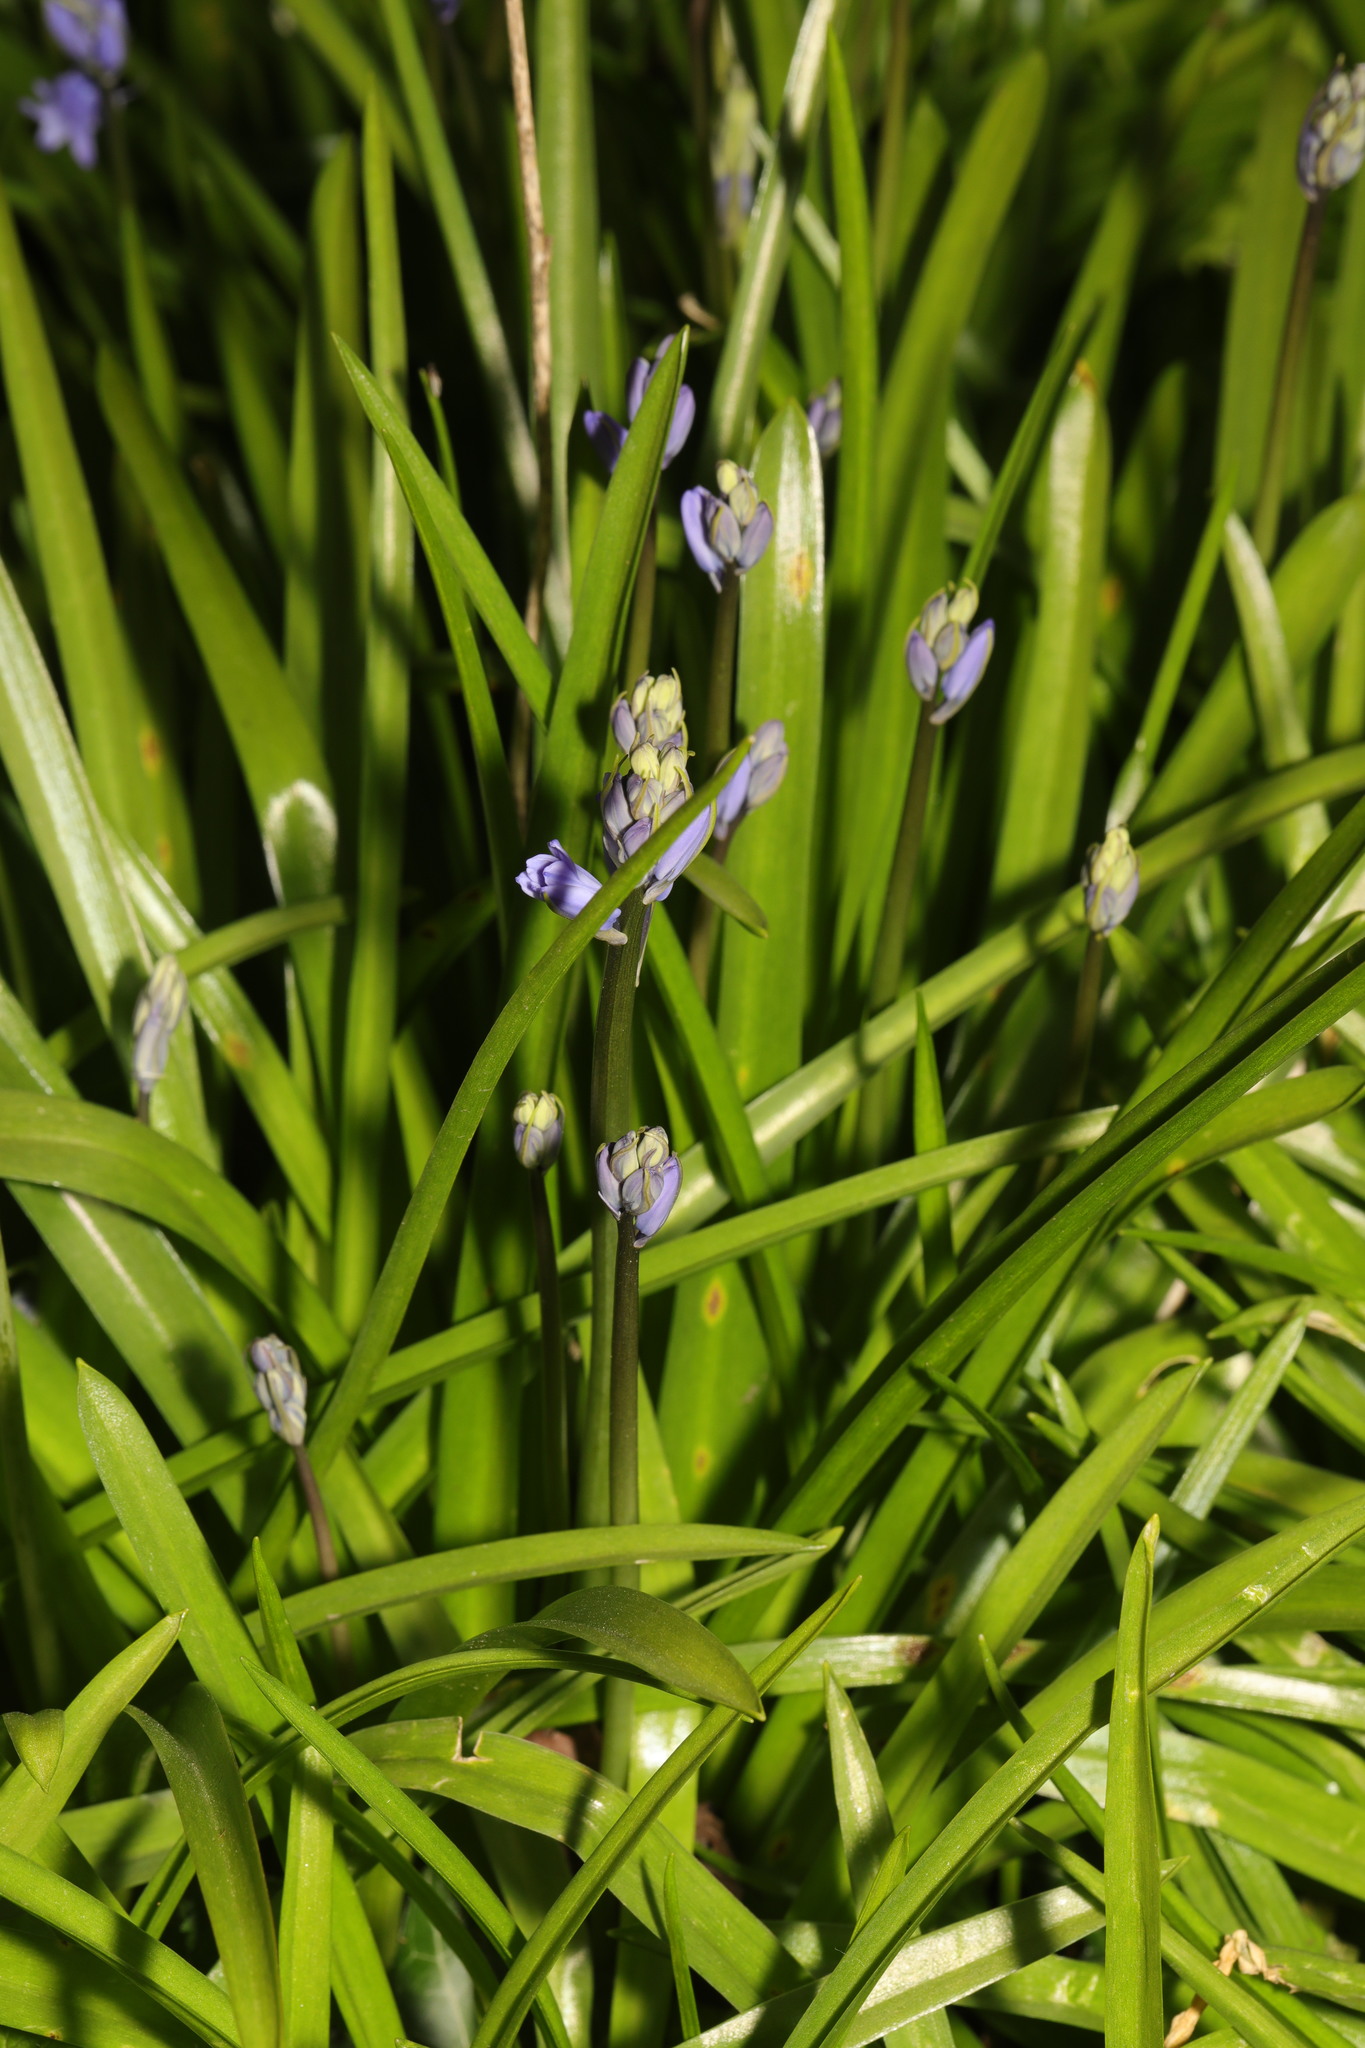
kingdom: Fungi
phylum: Basidiomycota
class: Pucciniomycetes
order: Pucciniales
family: Pucciniaceae
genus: Uromyces
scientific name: Uromyces hyacinthi
